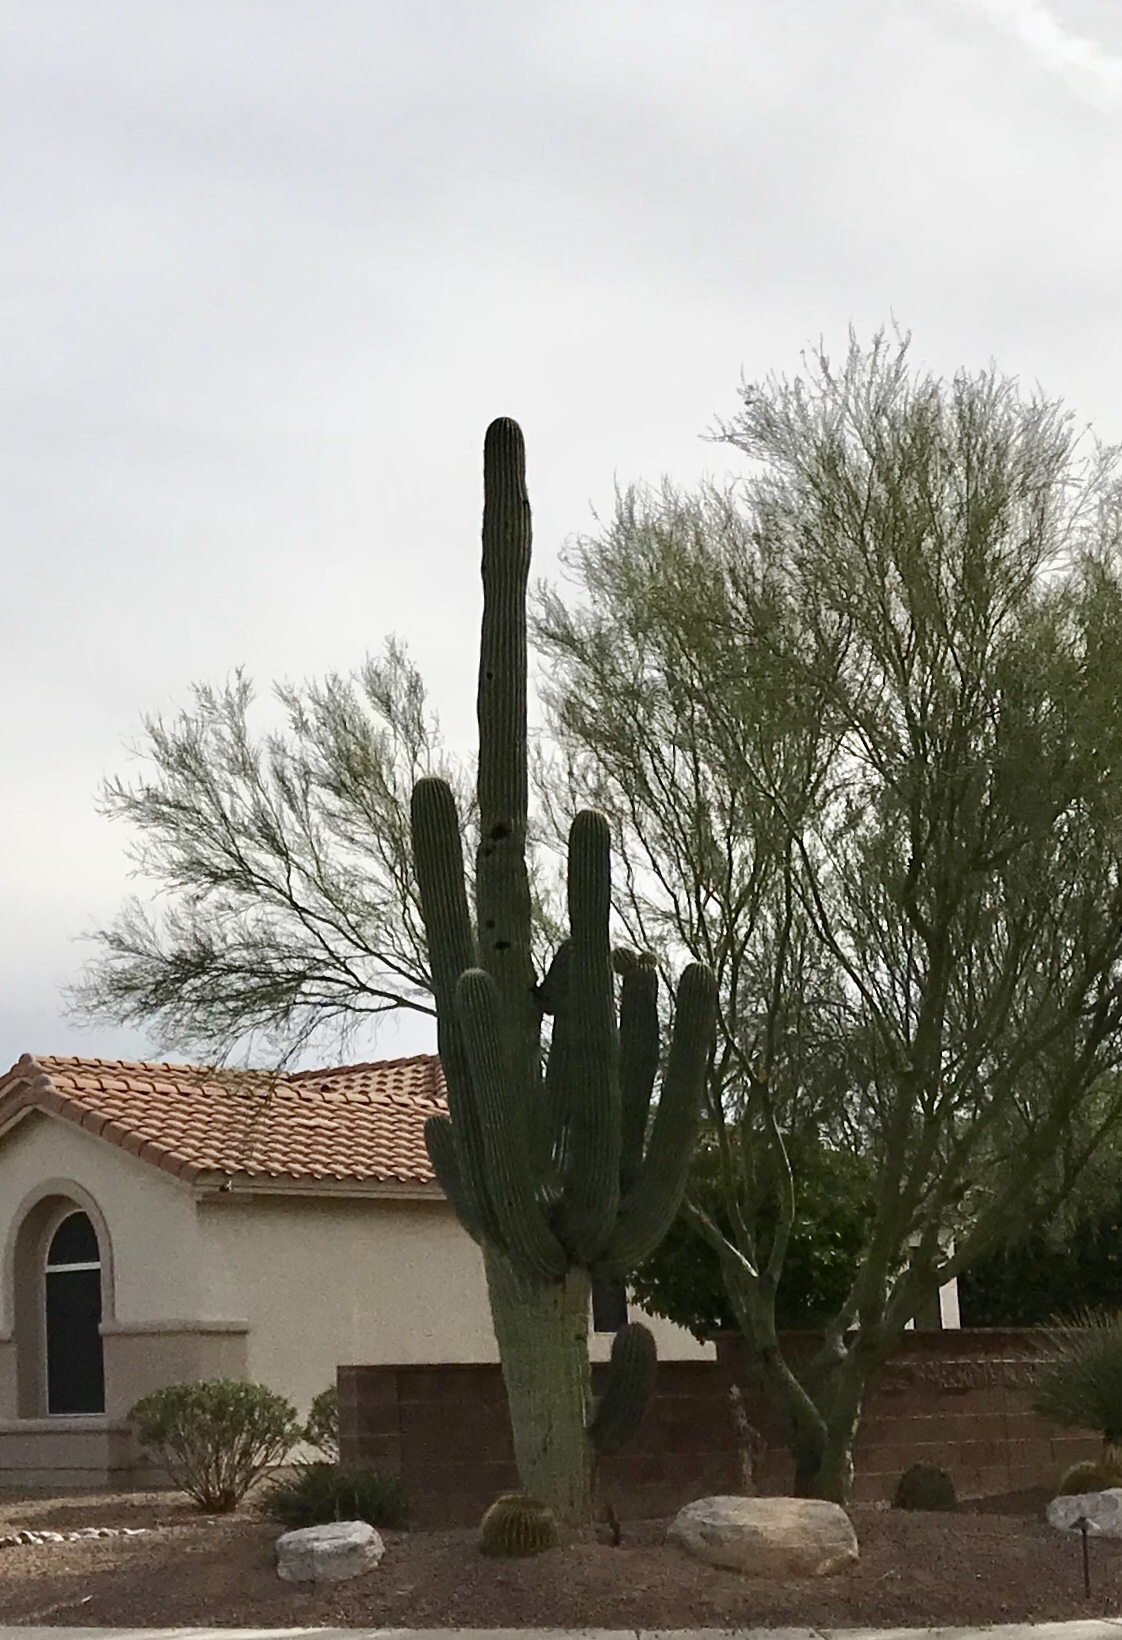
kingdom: Plantae
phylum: Tracheophyta
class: Magnoliopsida
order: Caryophyllales
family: Cactaceae
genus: Carnegiea
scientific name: Carnegiea gigantea
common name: Saguaro
